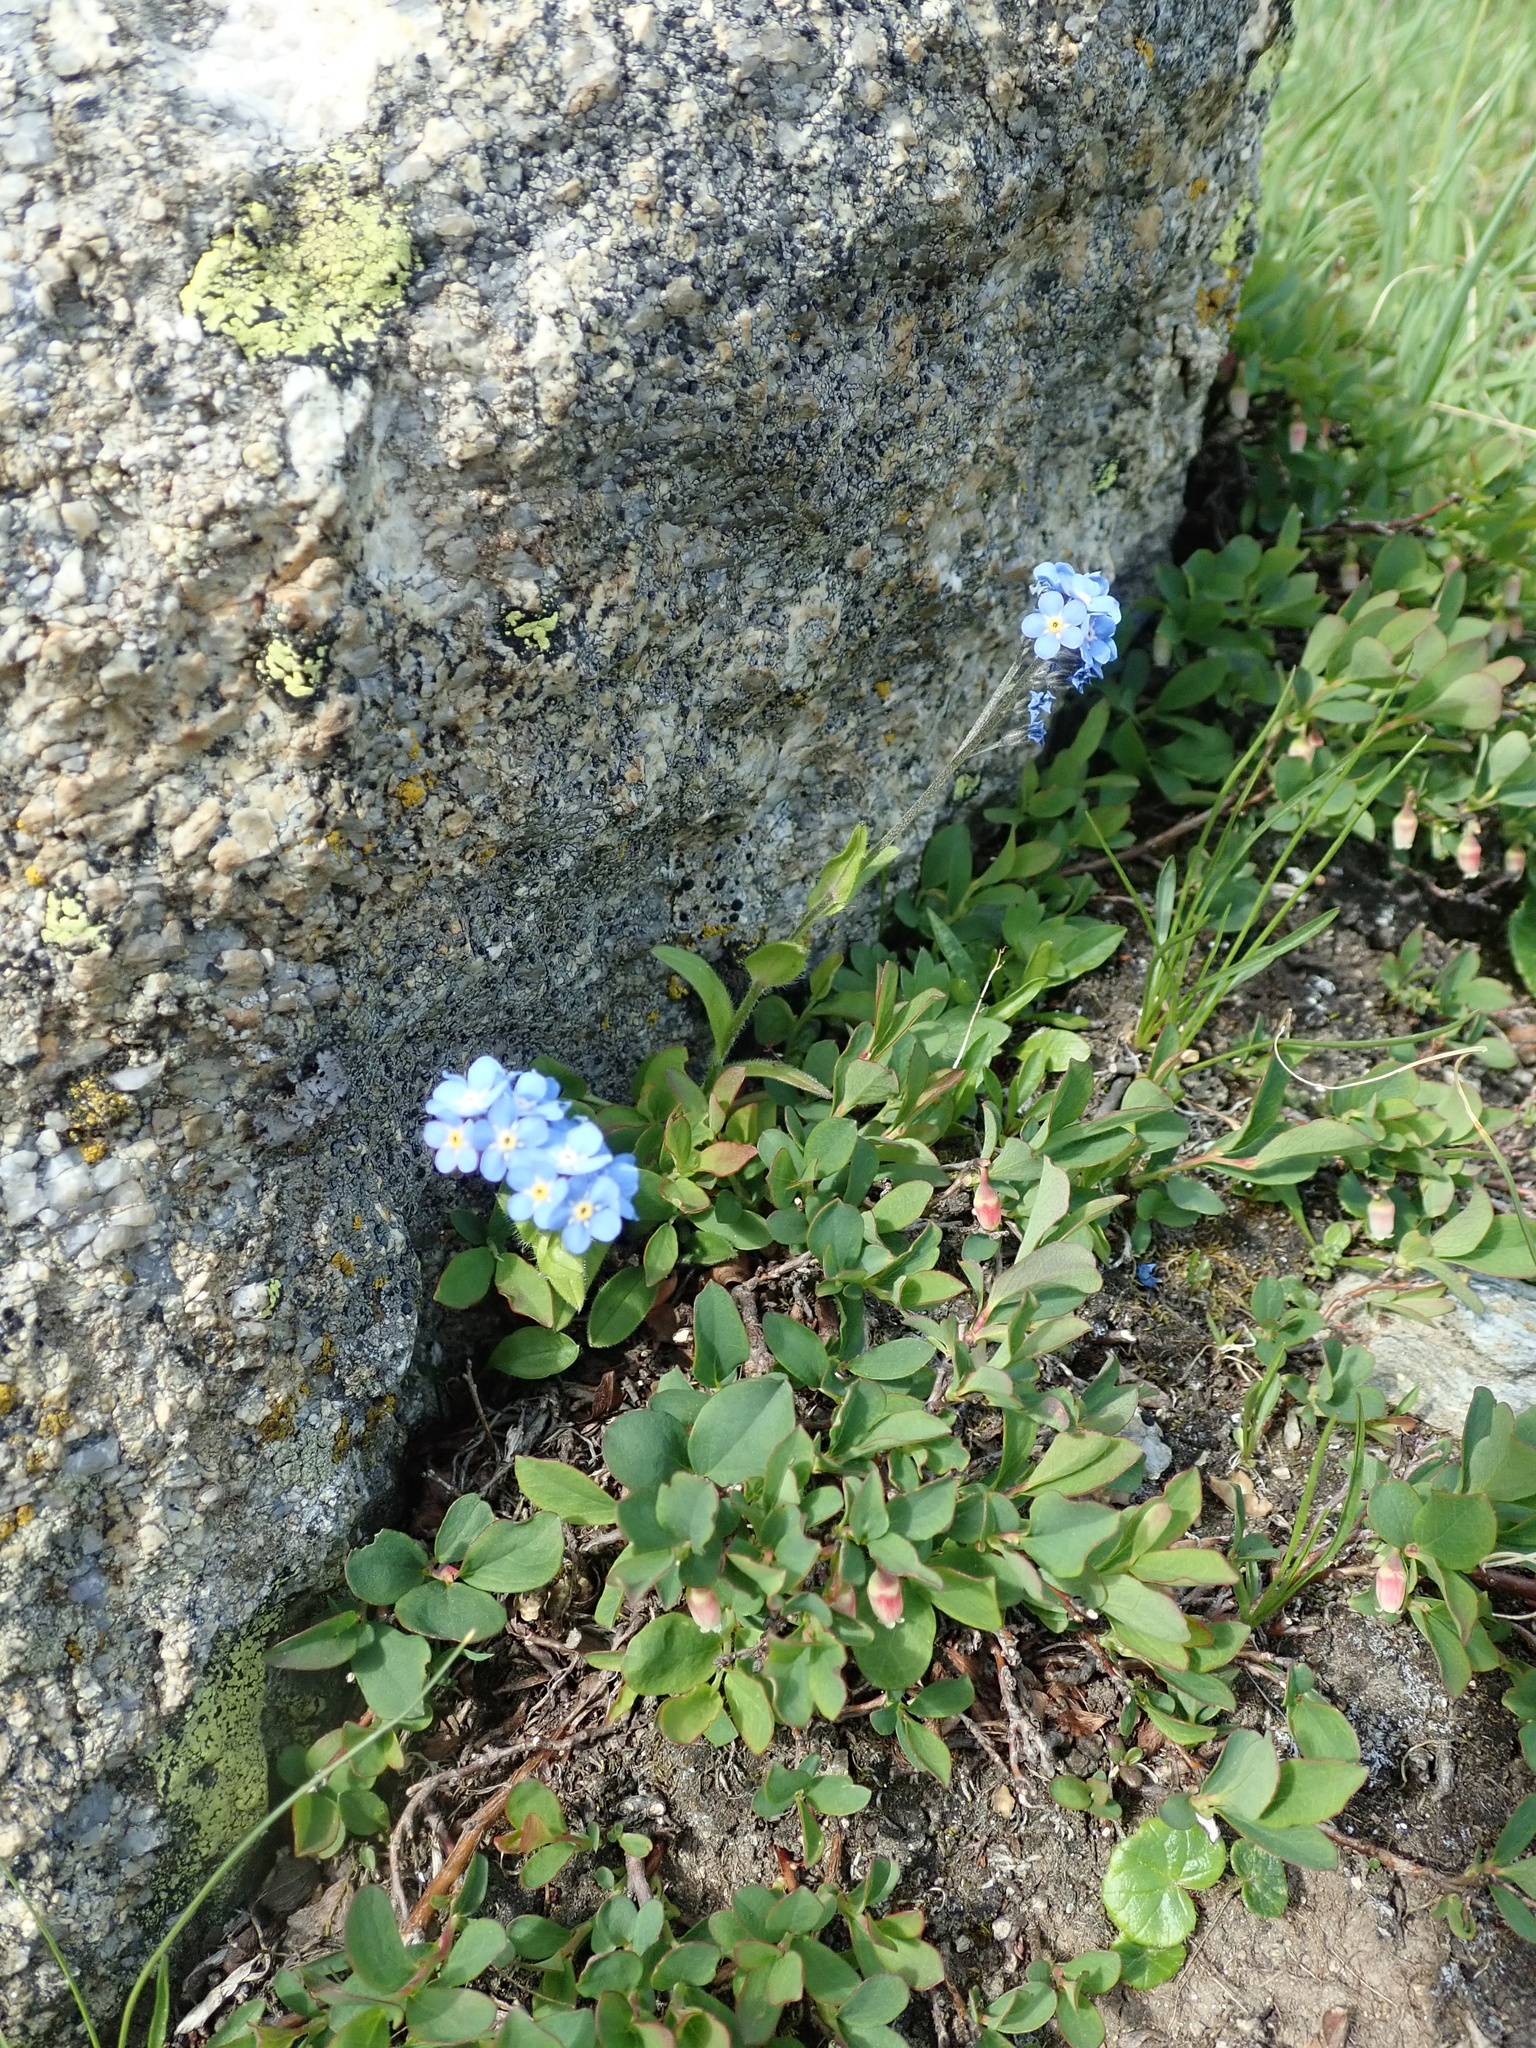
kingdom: Plantae
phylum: Tracheophyta
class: Magnoliopsida
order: Boraginales
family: Boraginaceae
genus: Myosotis
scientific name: Myosotis alpestris
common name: Alpine forget-me-not
